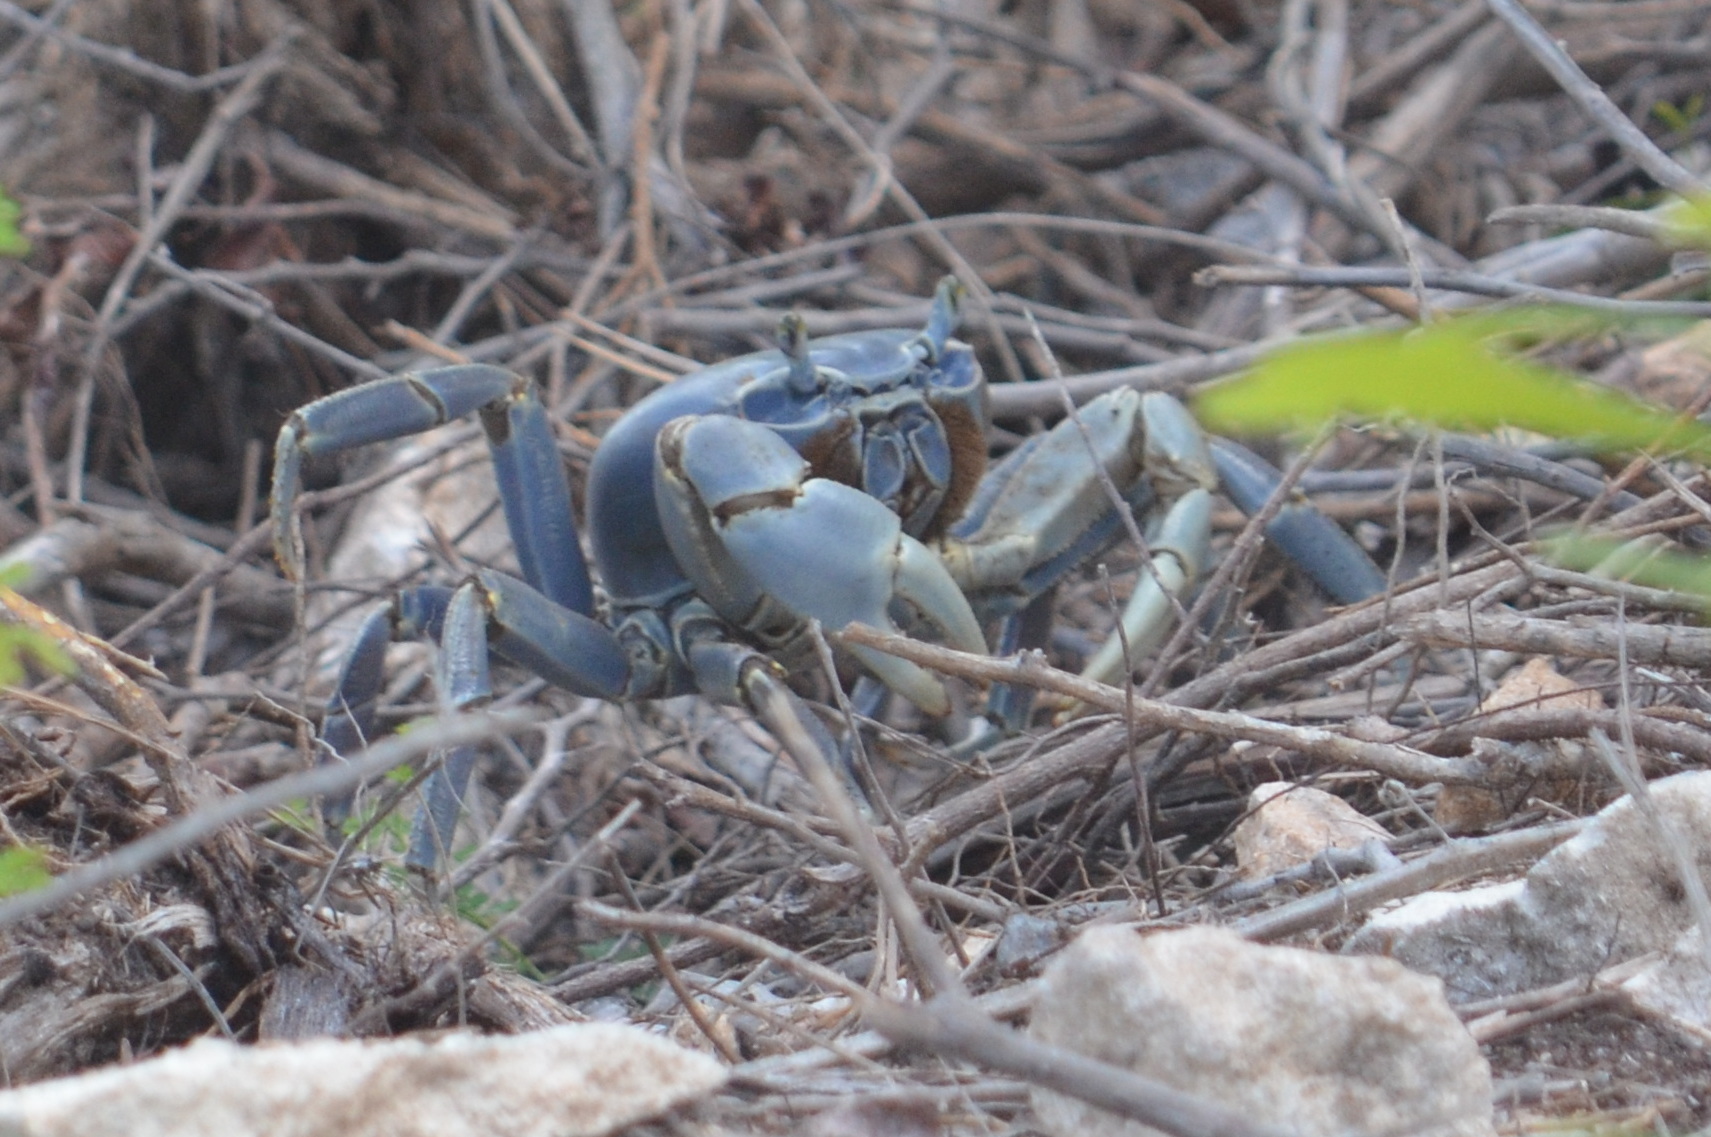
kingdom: Animalia
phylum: Arthropoda
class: Malacostraca
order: Decapoda
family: Gecarcinidae
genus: Cardisoma
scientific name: Cardisoma guanhumi
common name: Great land crab
